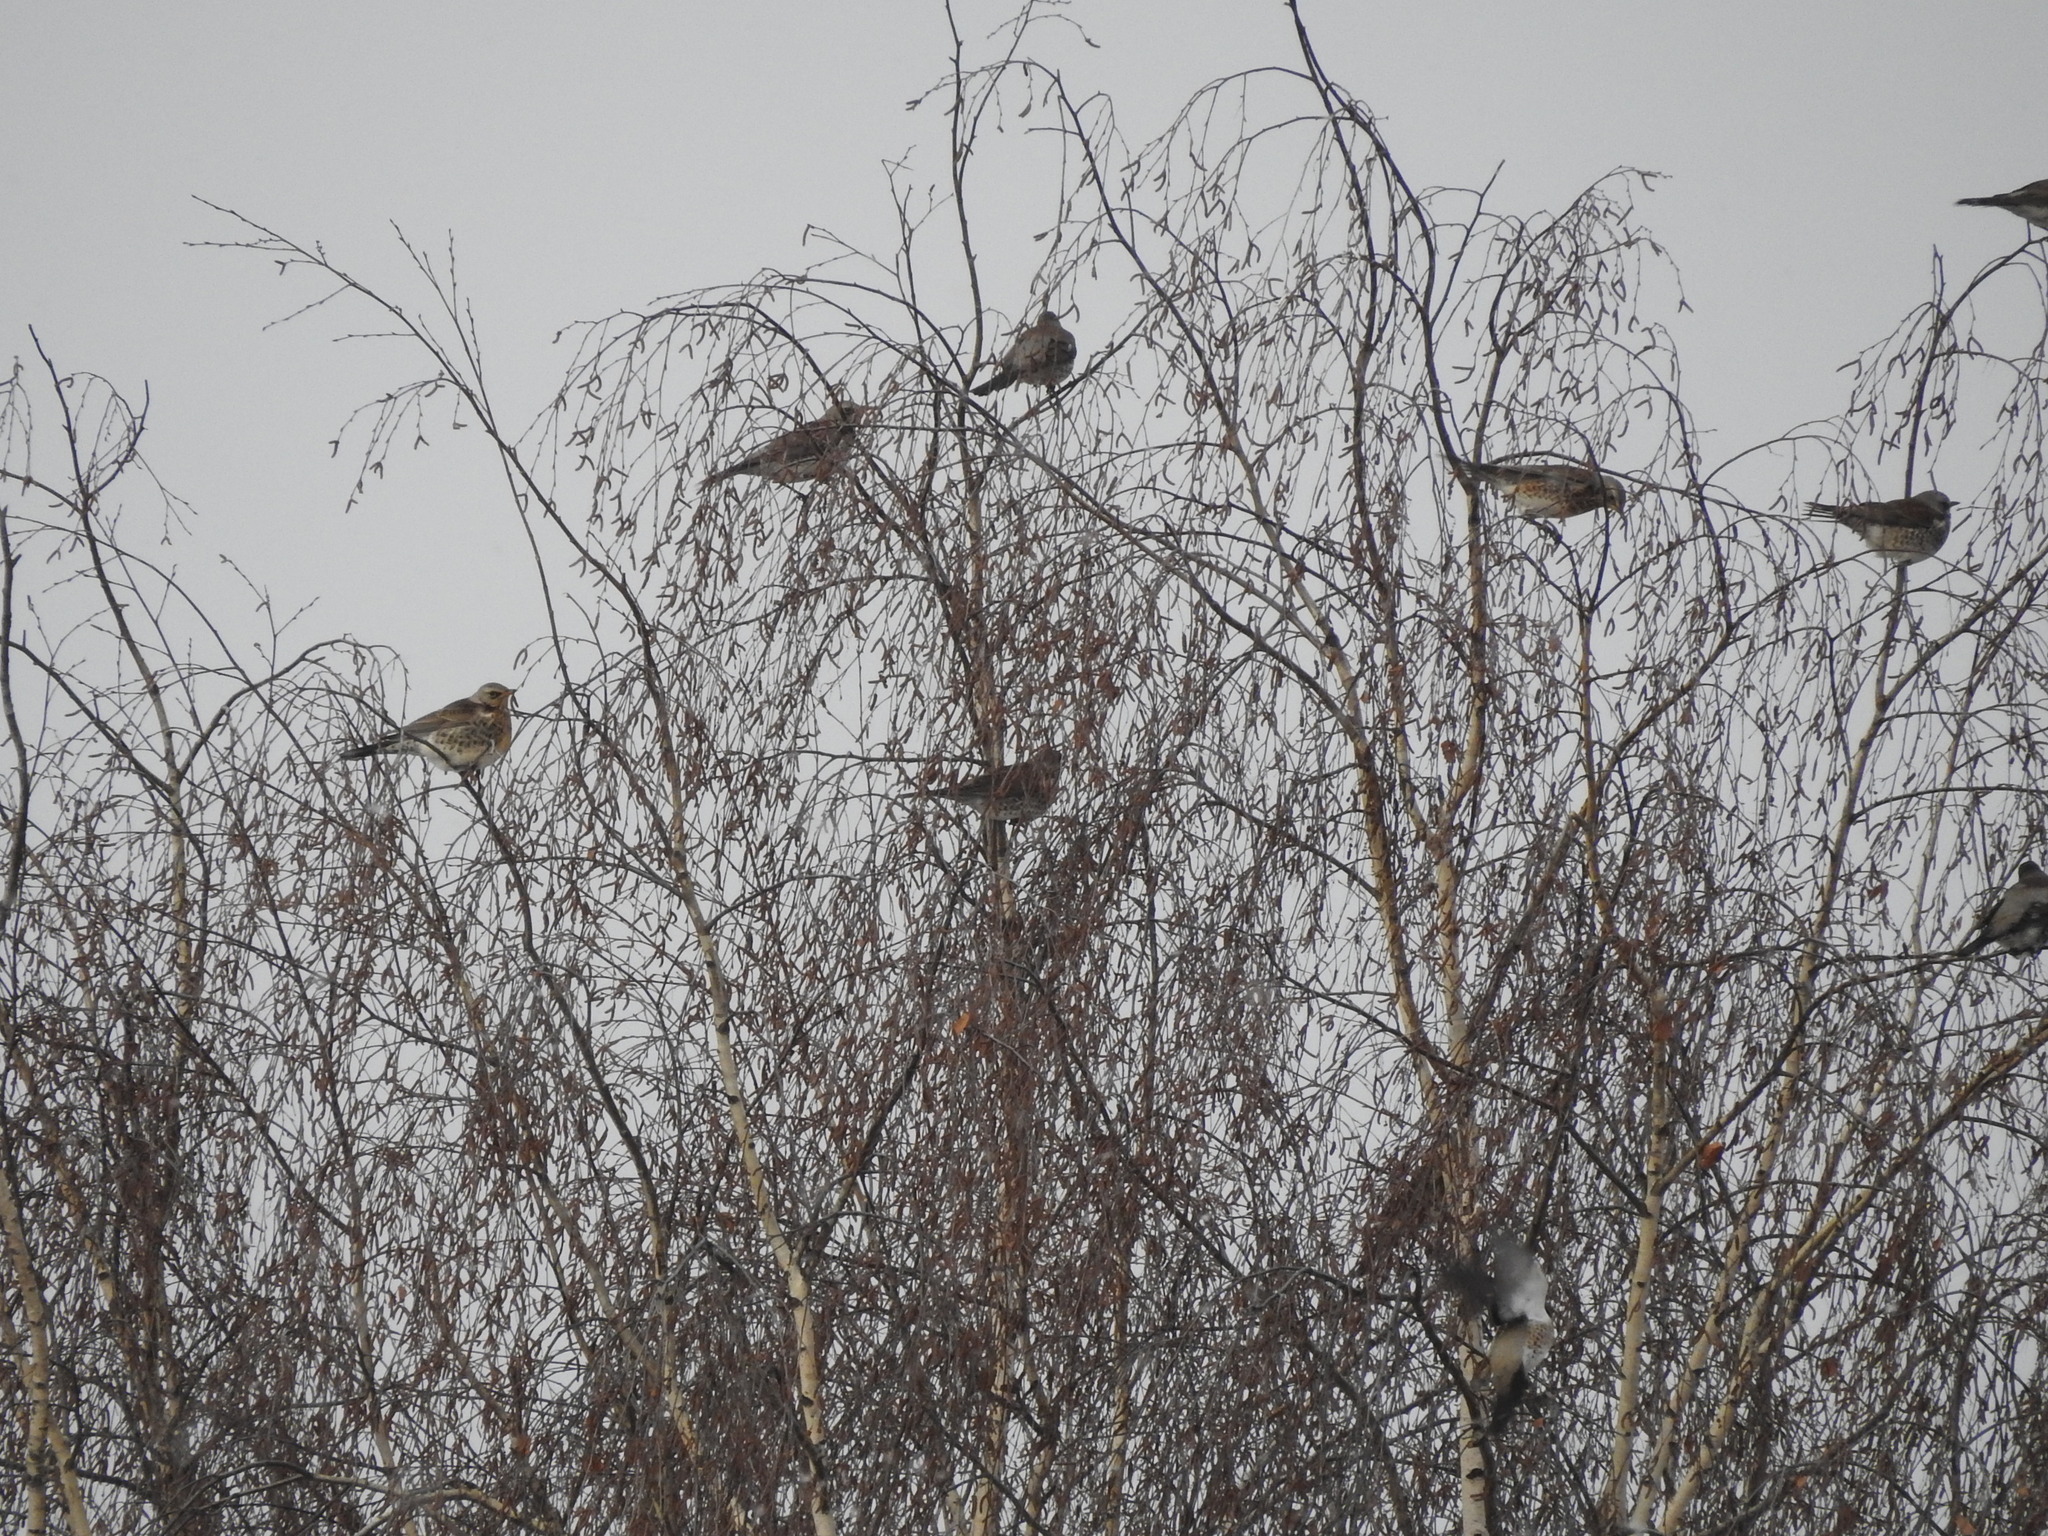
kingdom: Animalia
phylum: Chordata
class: Aves
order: Passeriformes
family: Turdidae
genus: Turdus
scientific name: Turdus pilaris
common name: Fieldfare
